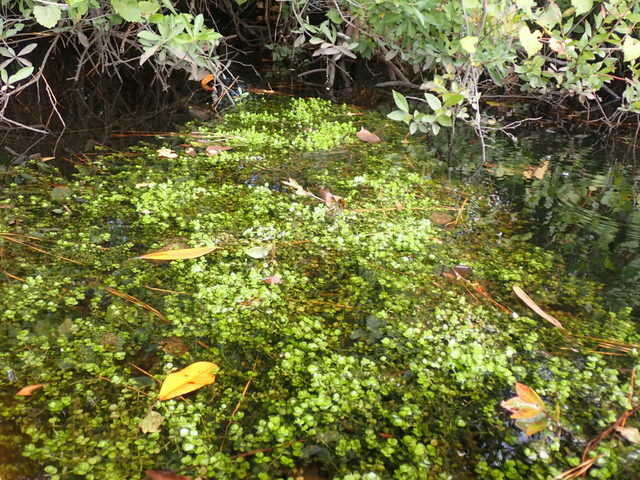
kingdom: Plantae
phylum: Tracheophyta
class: Magnoliopsida
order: Lamiales
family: Linderniaceae
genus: Micranthemum
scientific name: Micranthemum umbrosum
